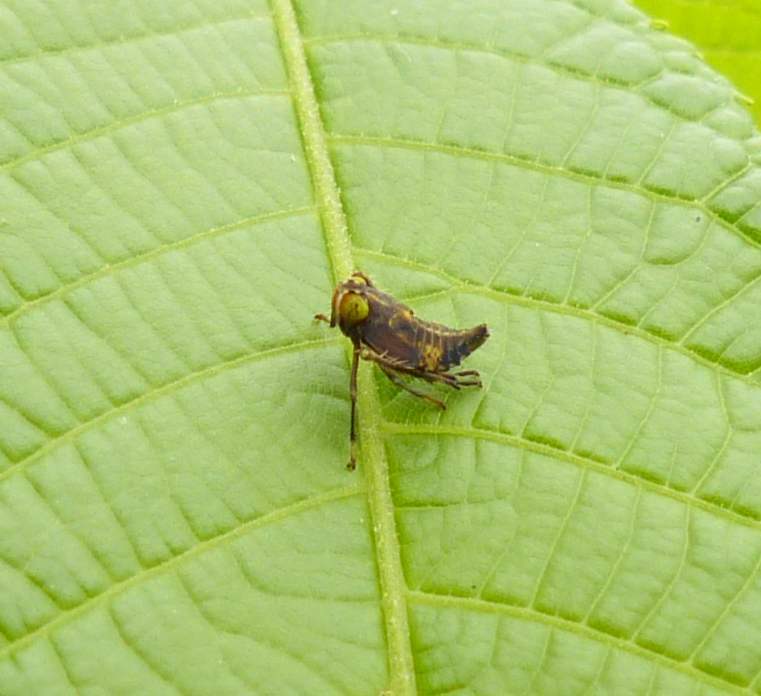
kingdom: Animalia
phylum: Arthropoda
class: Insecta
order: Hemiptera
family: Cicadellidae
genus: Jikradia
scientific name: Jikradia olitoria
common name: Coppery leafhopper
